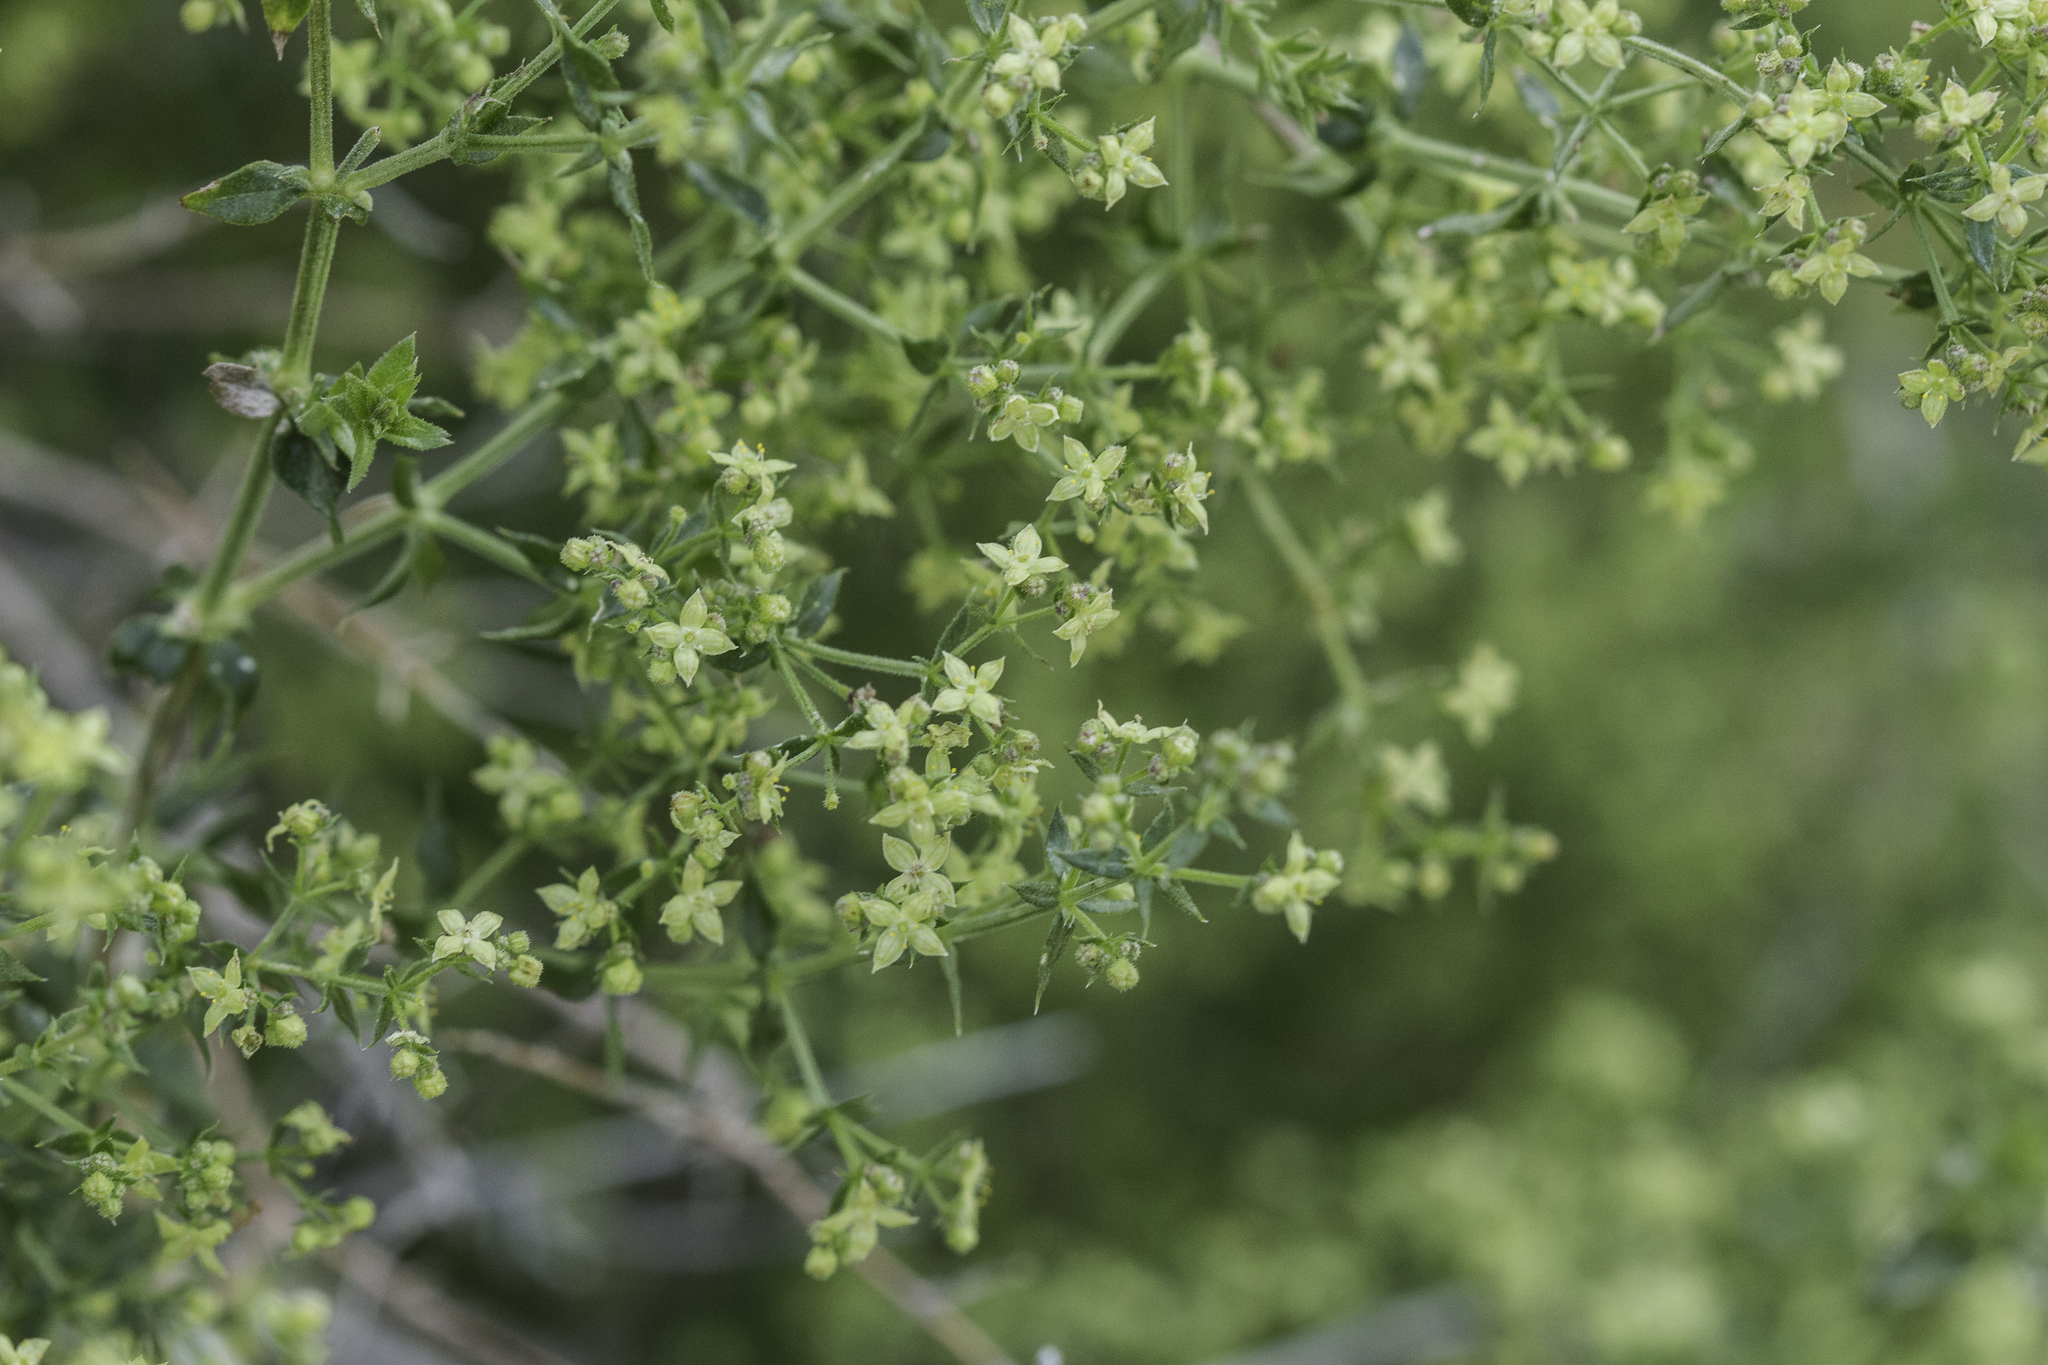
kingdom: Plantae
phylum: Tracheophyta
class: Magnoliopsida
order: Gentianales
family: Rubiaceae
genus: Galium
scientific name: Galium stellatum
